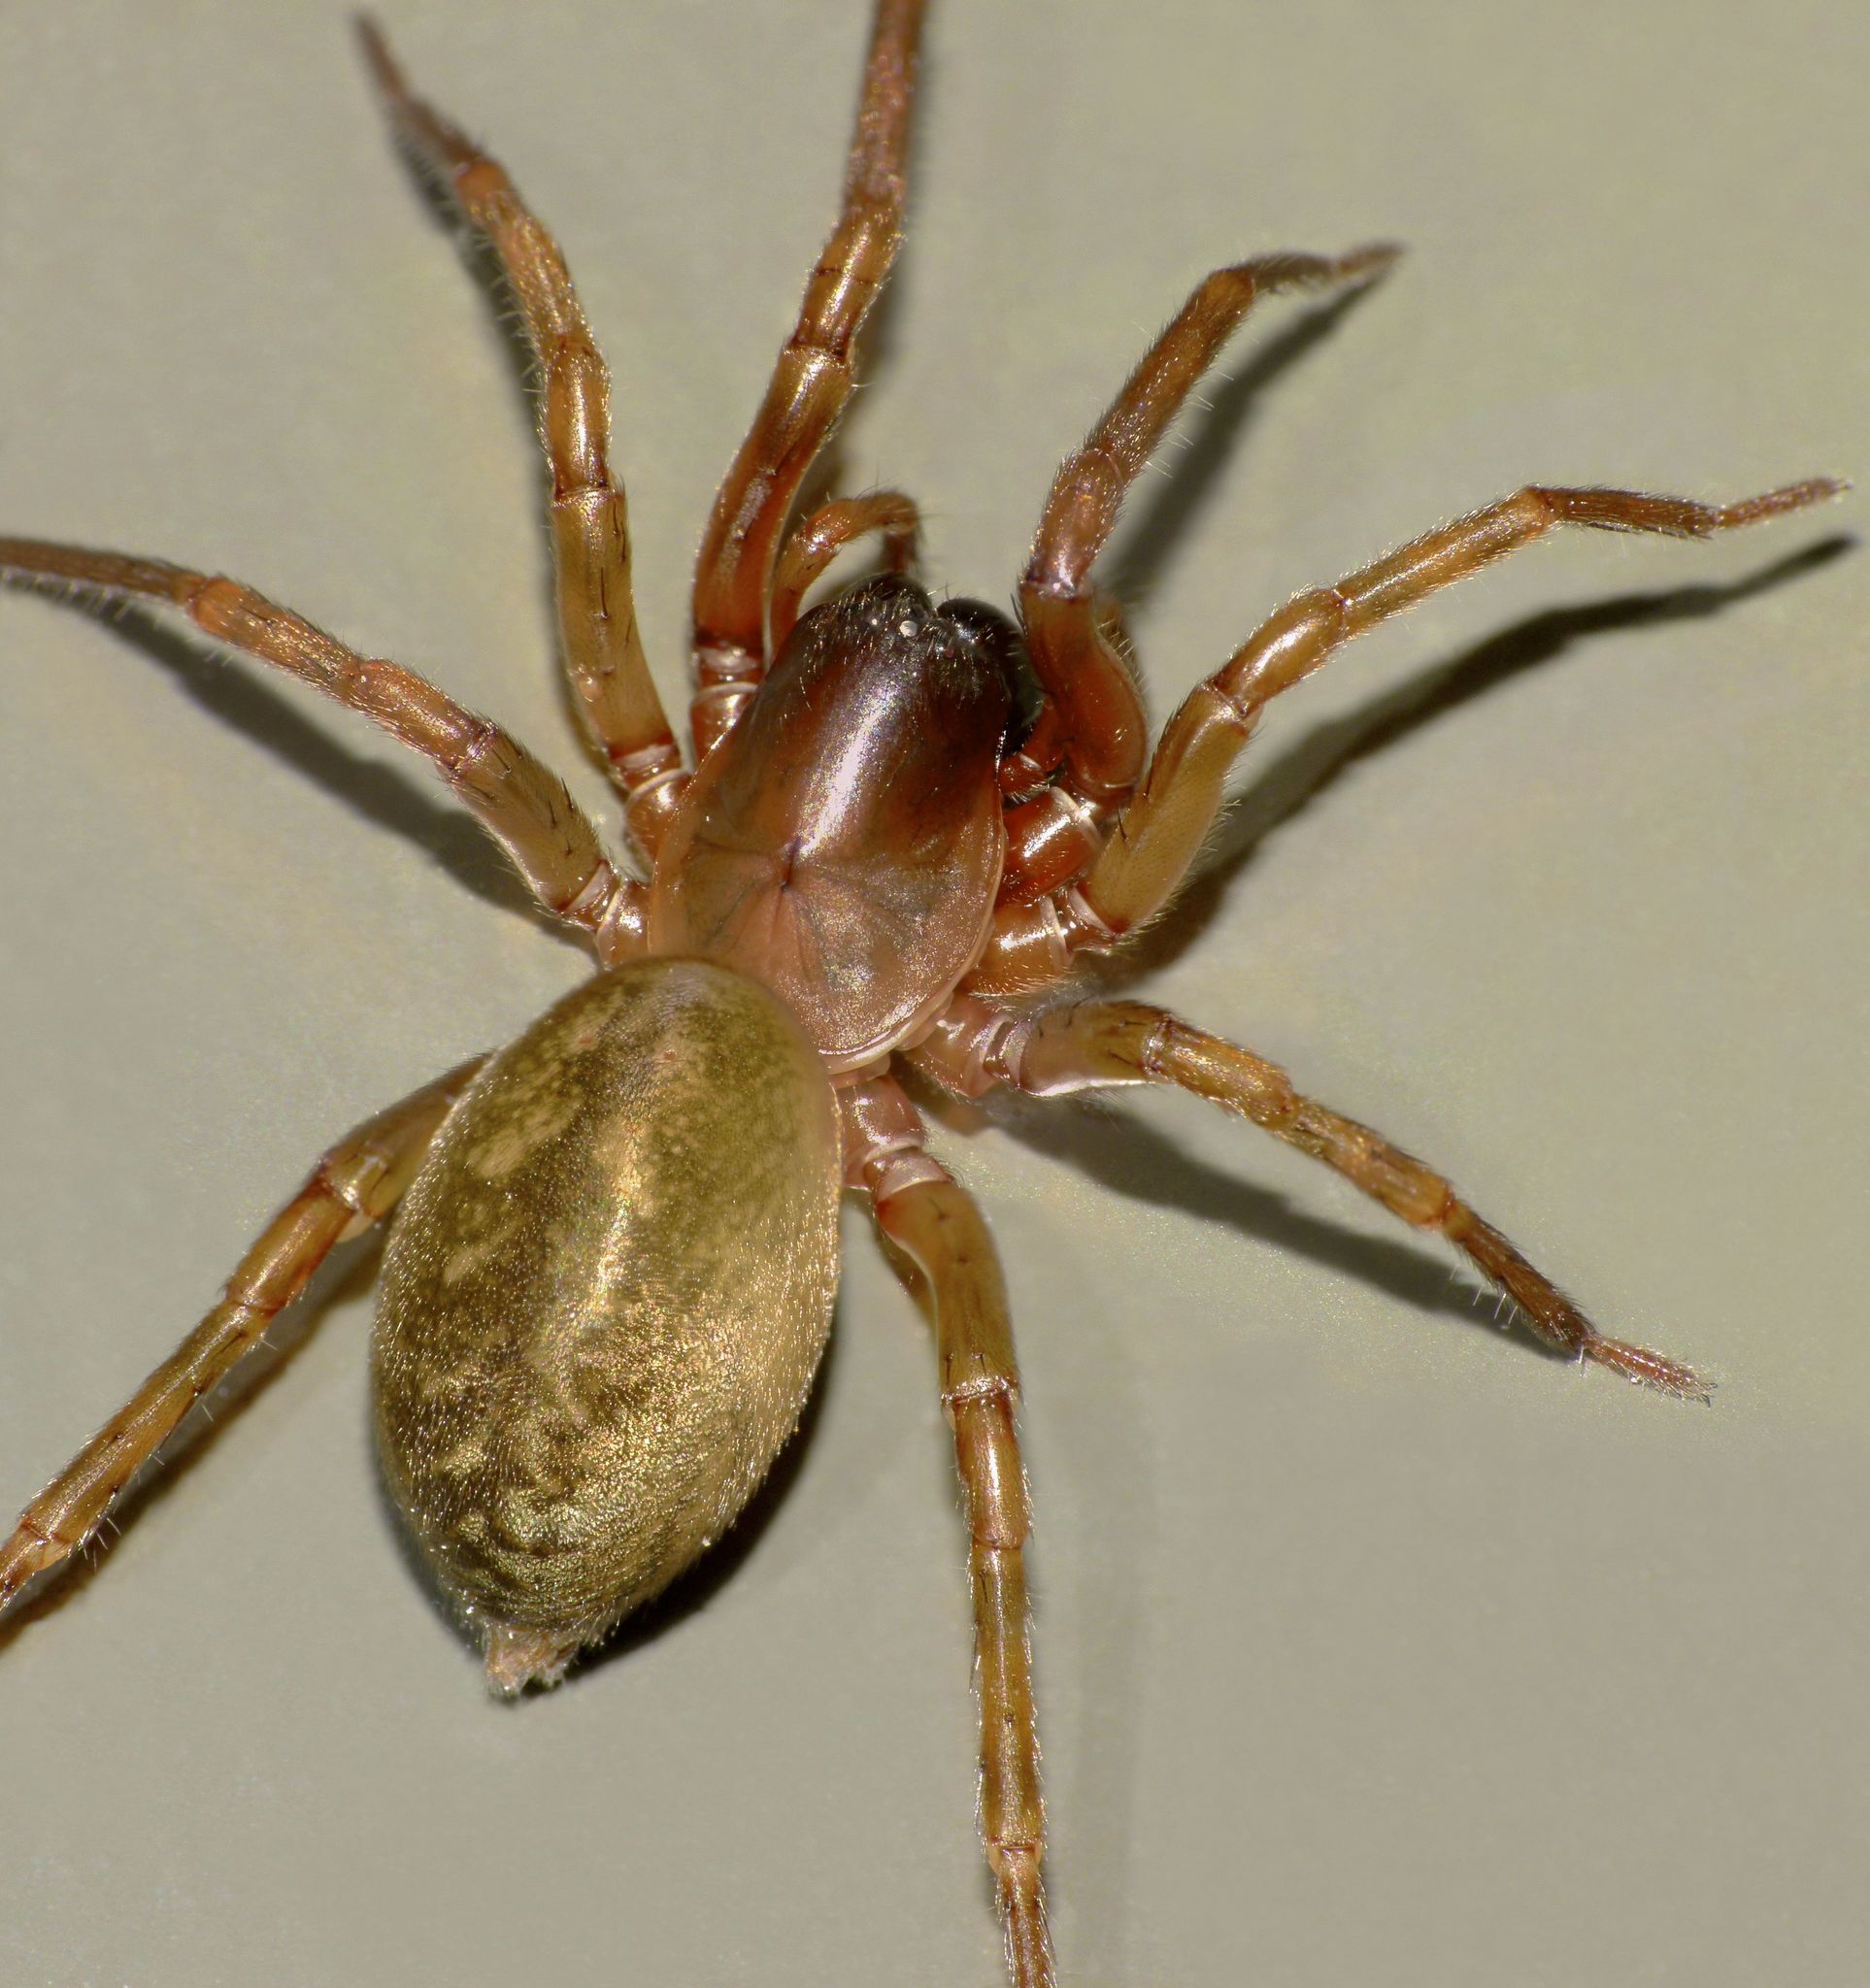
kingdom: Animalia
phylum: Arthropoda
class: Arachnida
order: Araneae
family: Desidae
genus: Mamoea
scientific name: Mamoea rufa
